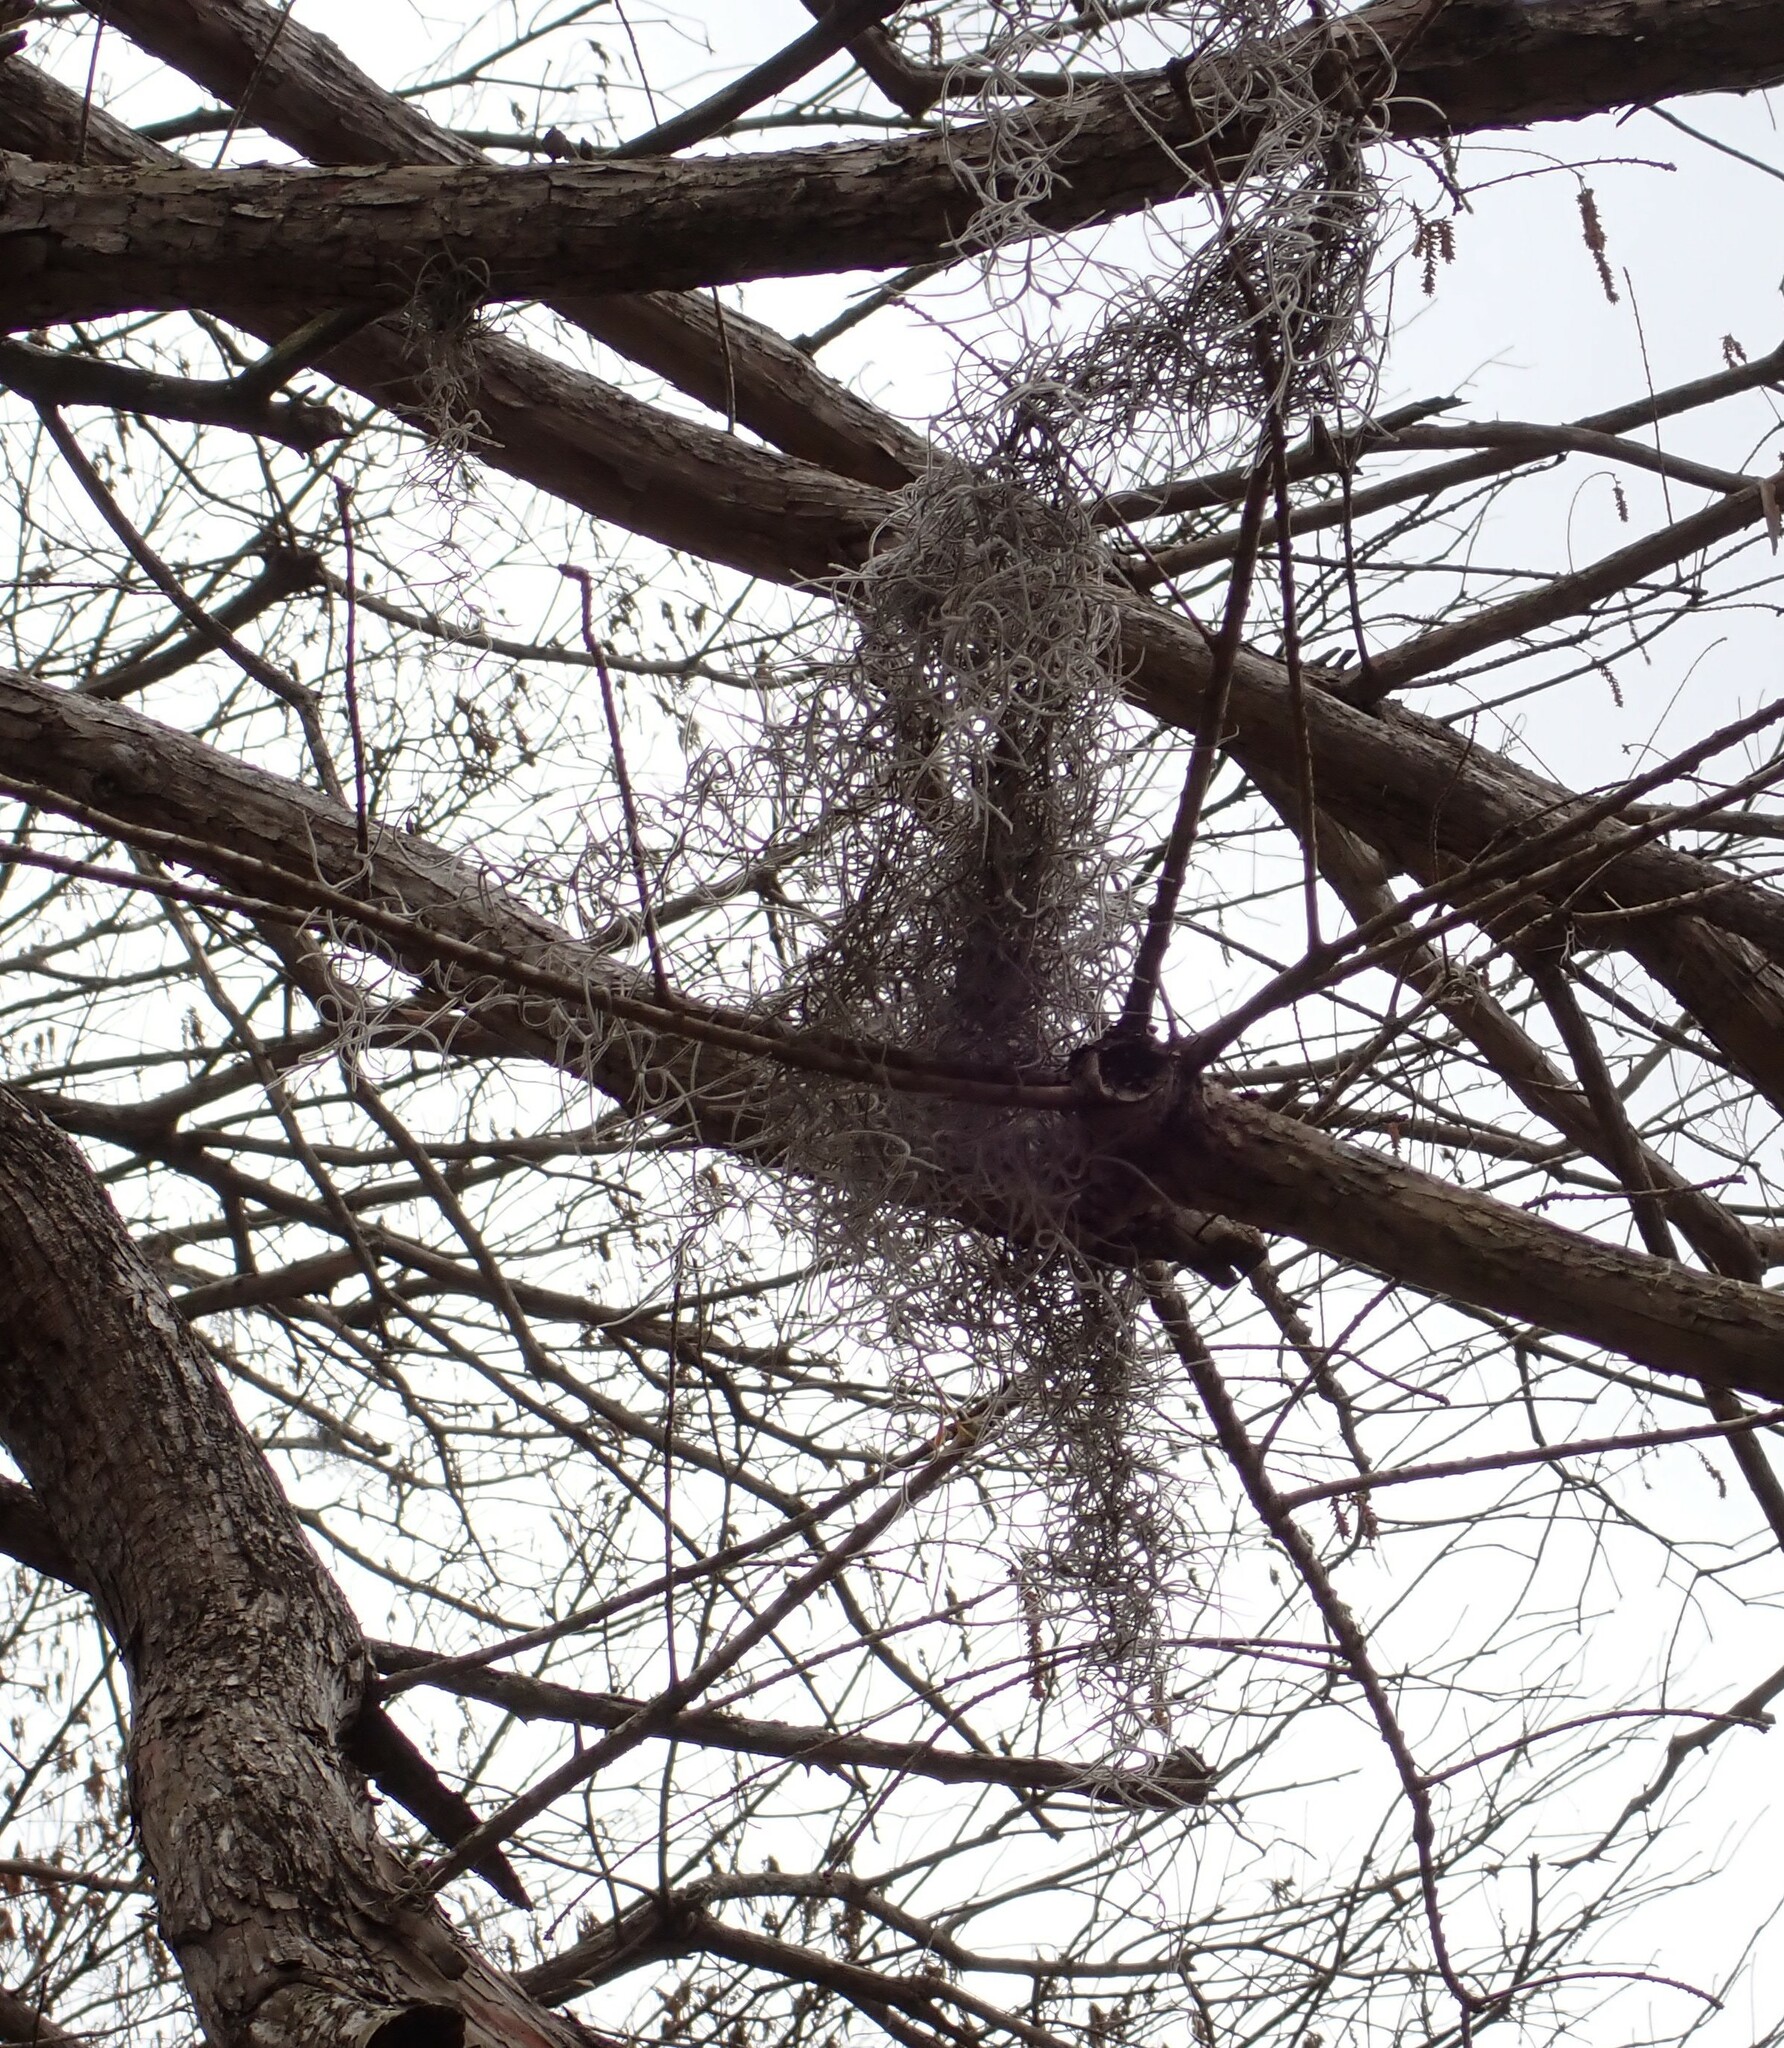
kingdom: Plantae
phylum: Tracheophyta
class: Liliopsida
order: Poales
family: Bromeliaceae
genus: Tillandsia
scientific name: Tillandsia usneoides
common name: Spanish moss
